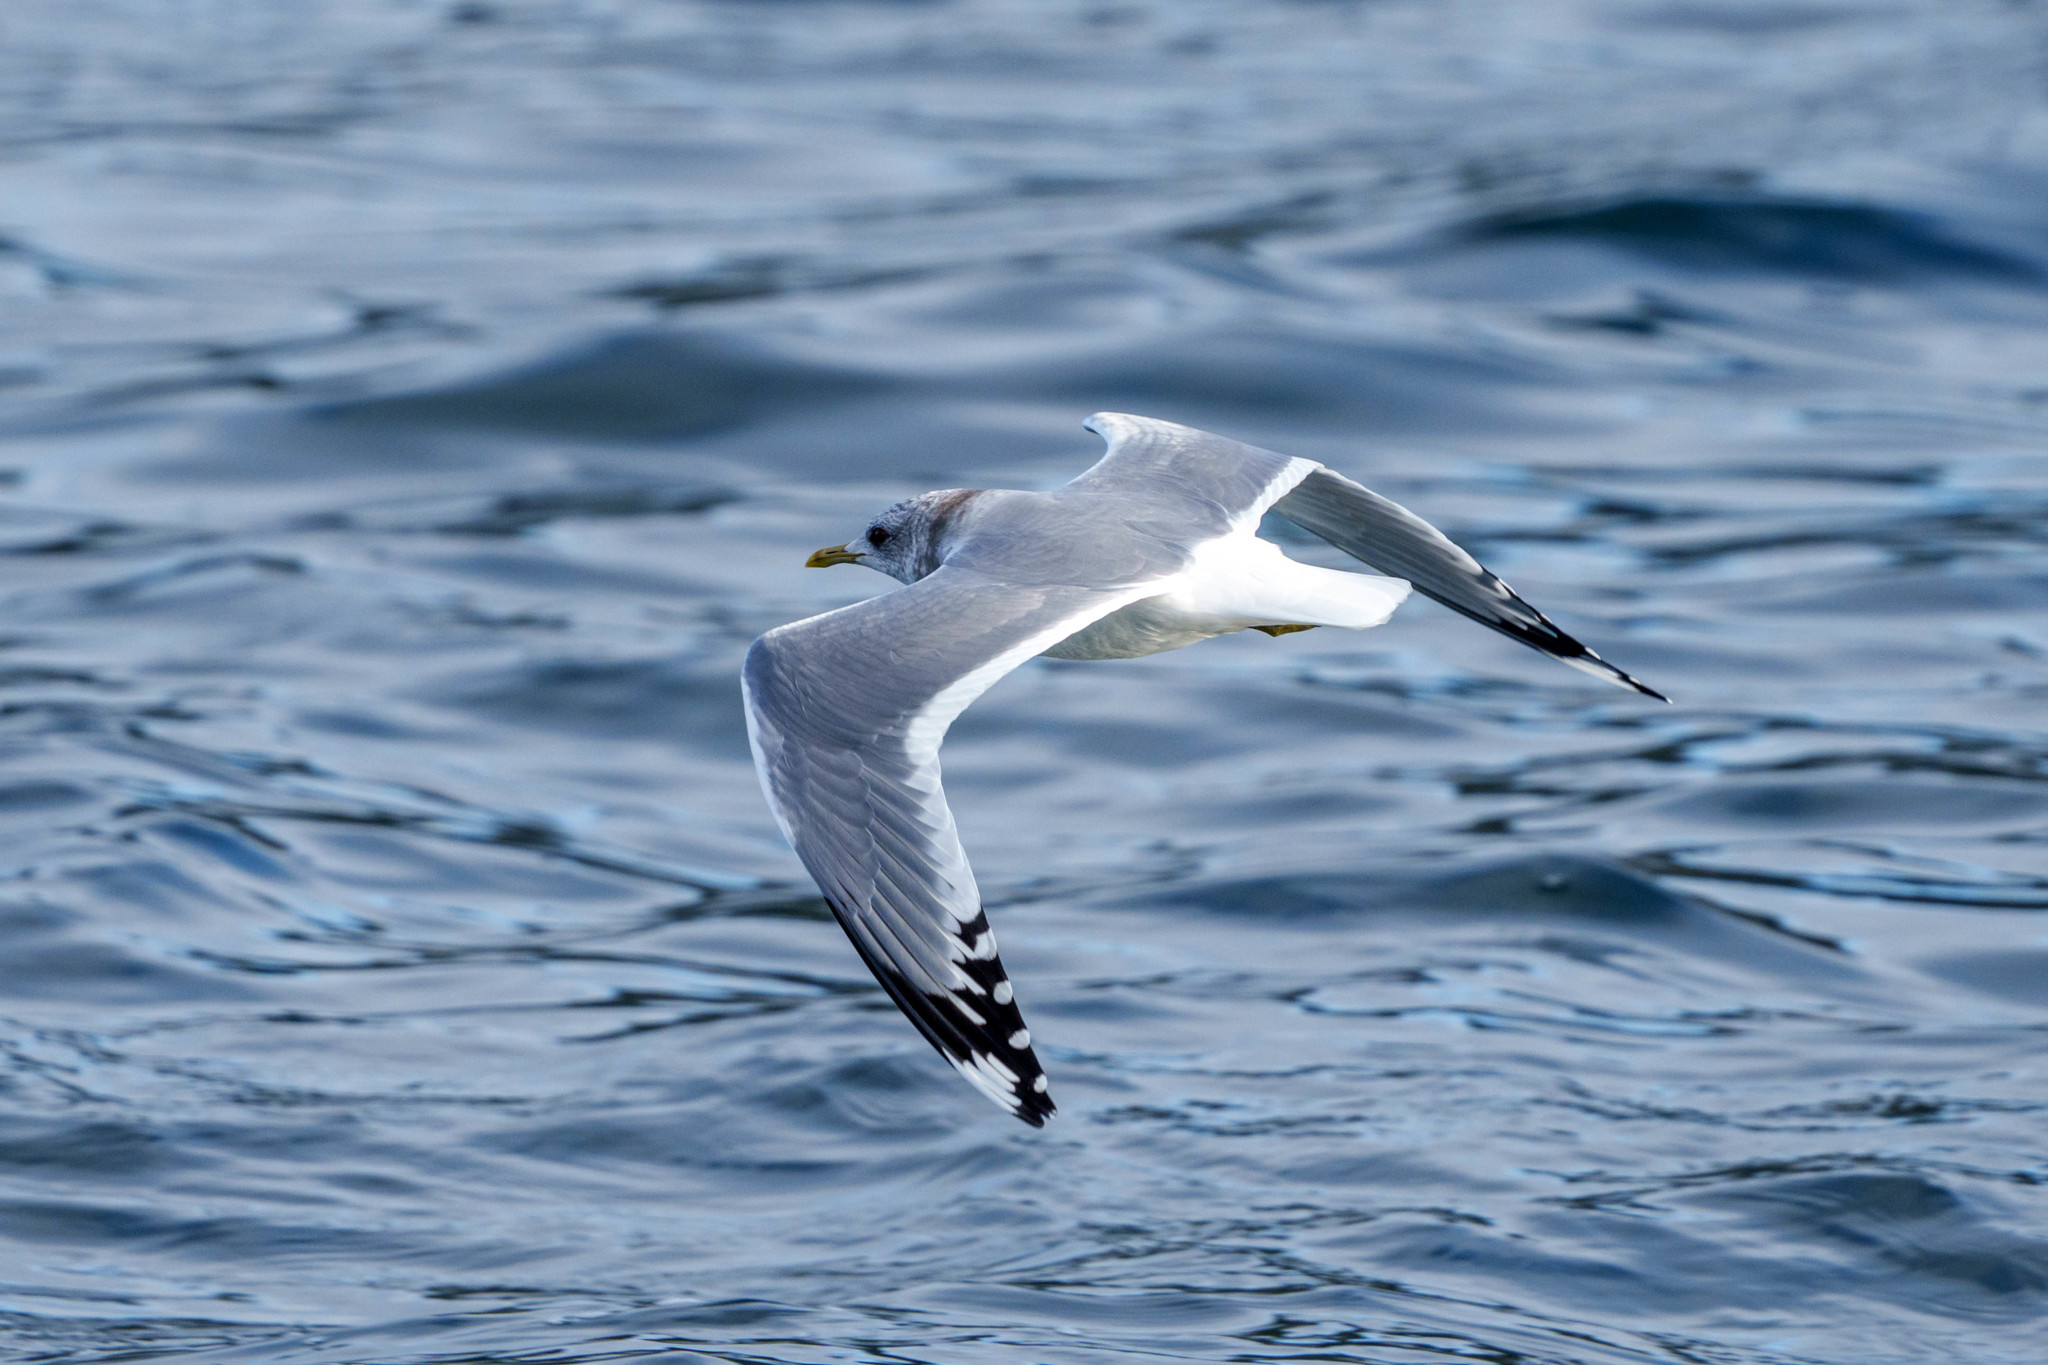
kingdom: Animalia
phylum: Chordata
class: Aves
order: Charadriiformes
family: Laridae
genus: Larus
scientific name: Larus brachyrhynchus
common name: Short-billed gull
